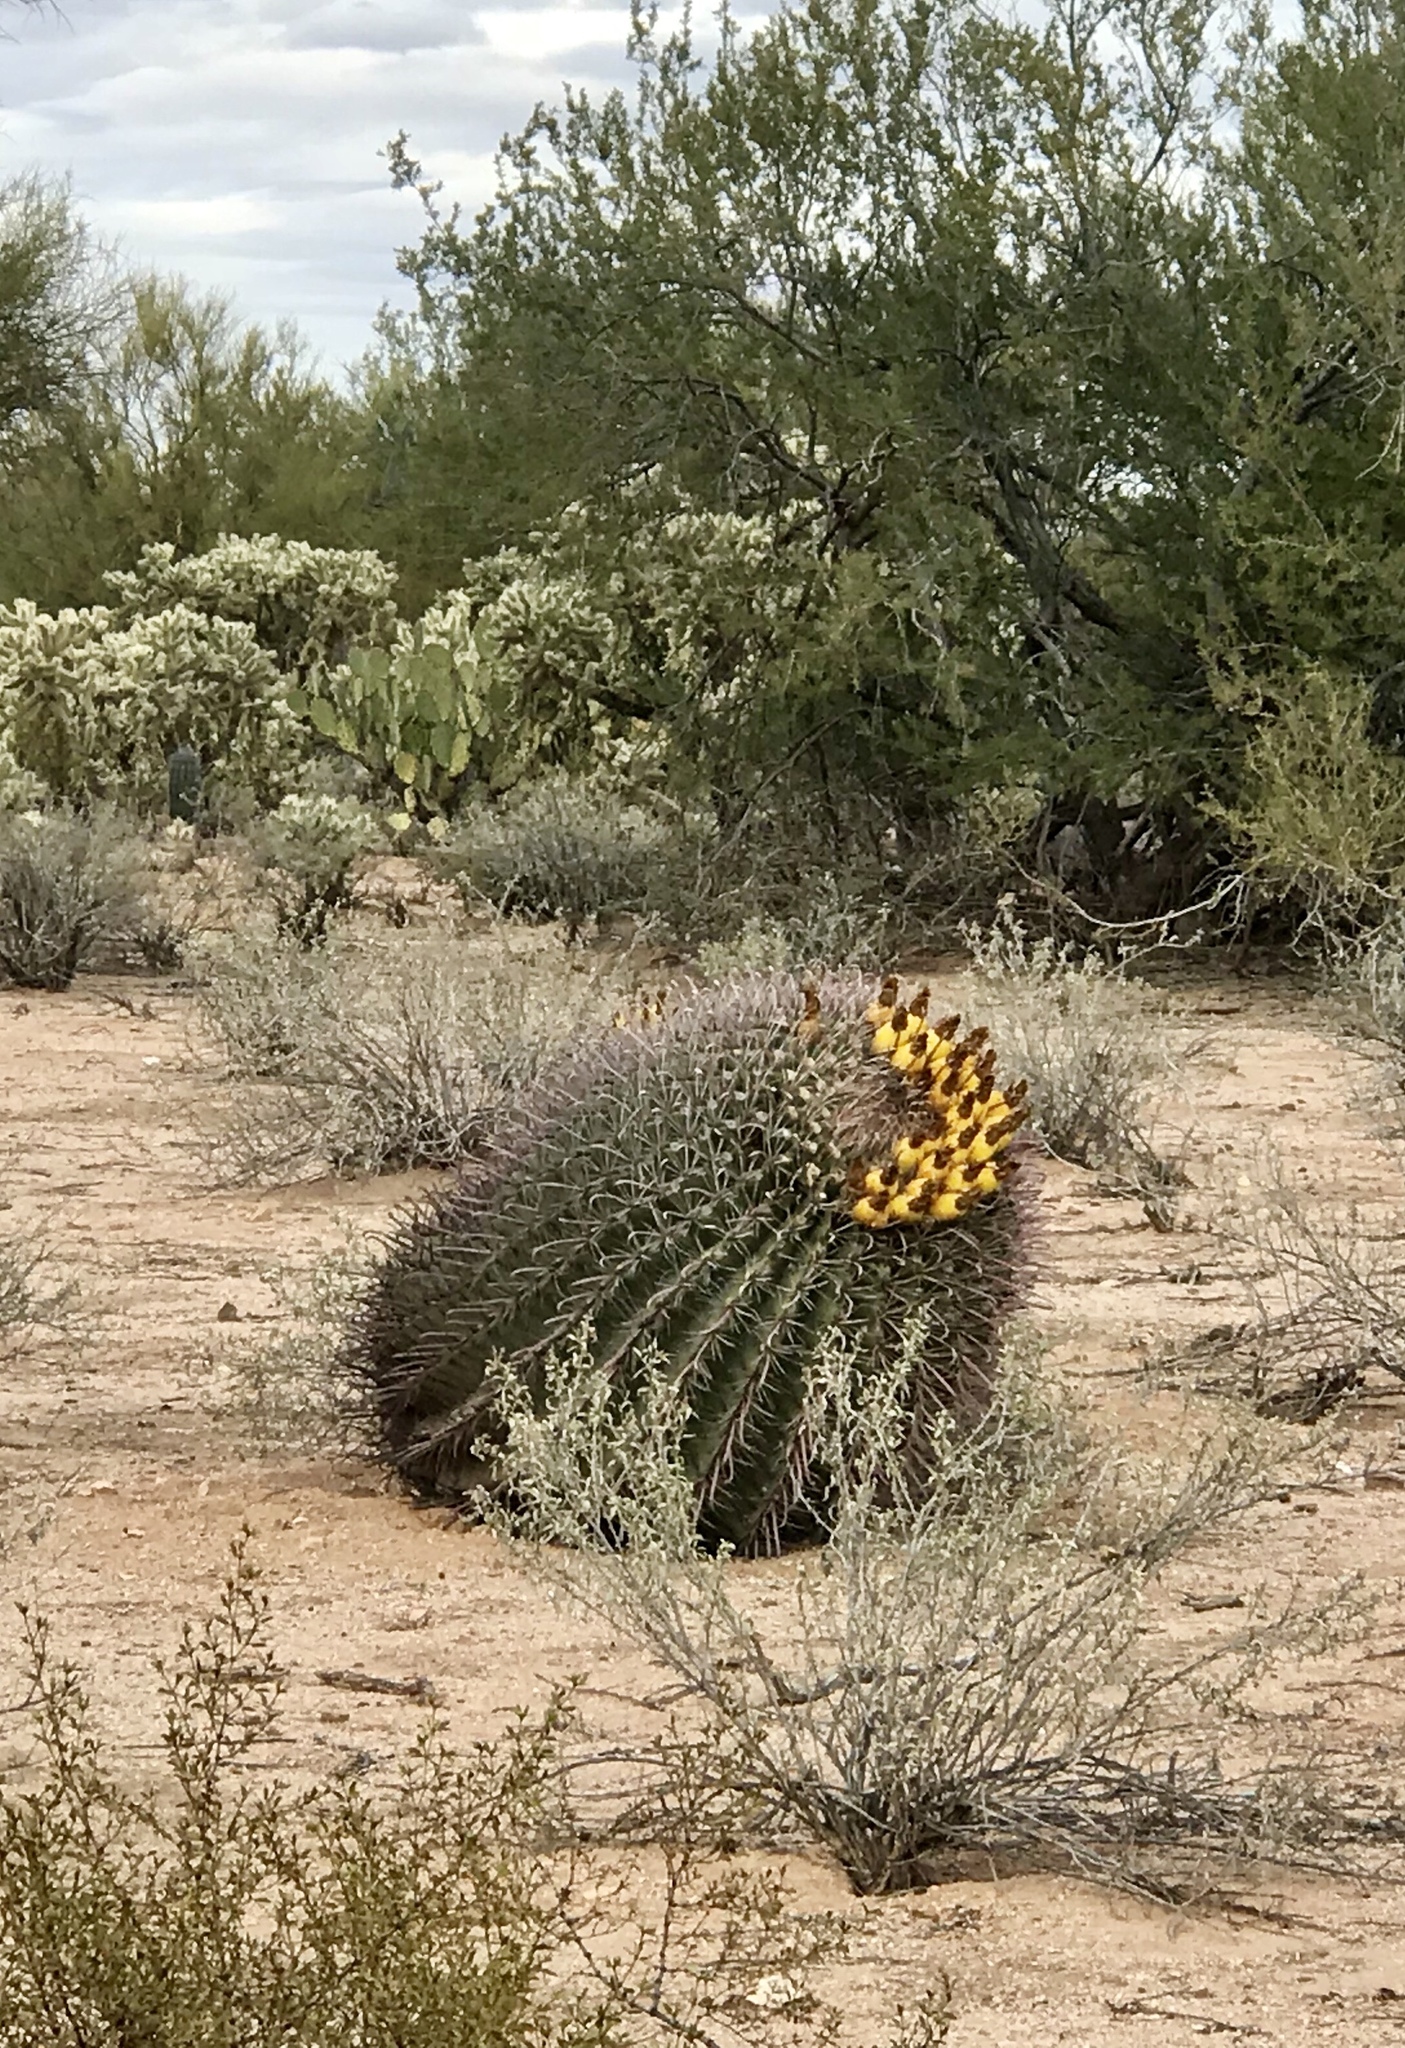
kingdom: Plantae
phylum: Tracheophyta
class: Magnoliopsida
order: Caryophyllales
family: Cactaceae
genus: Ferocactus
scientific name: Ferocactus wislizeni
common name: Candy barrel cactus
